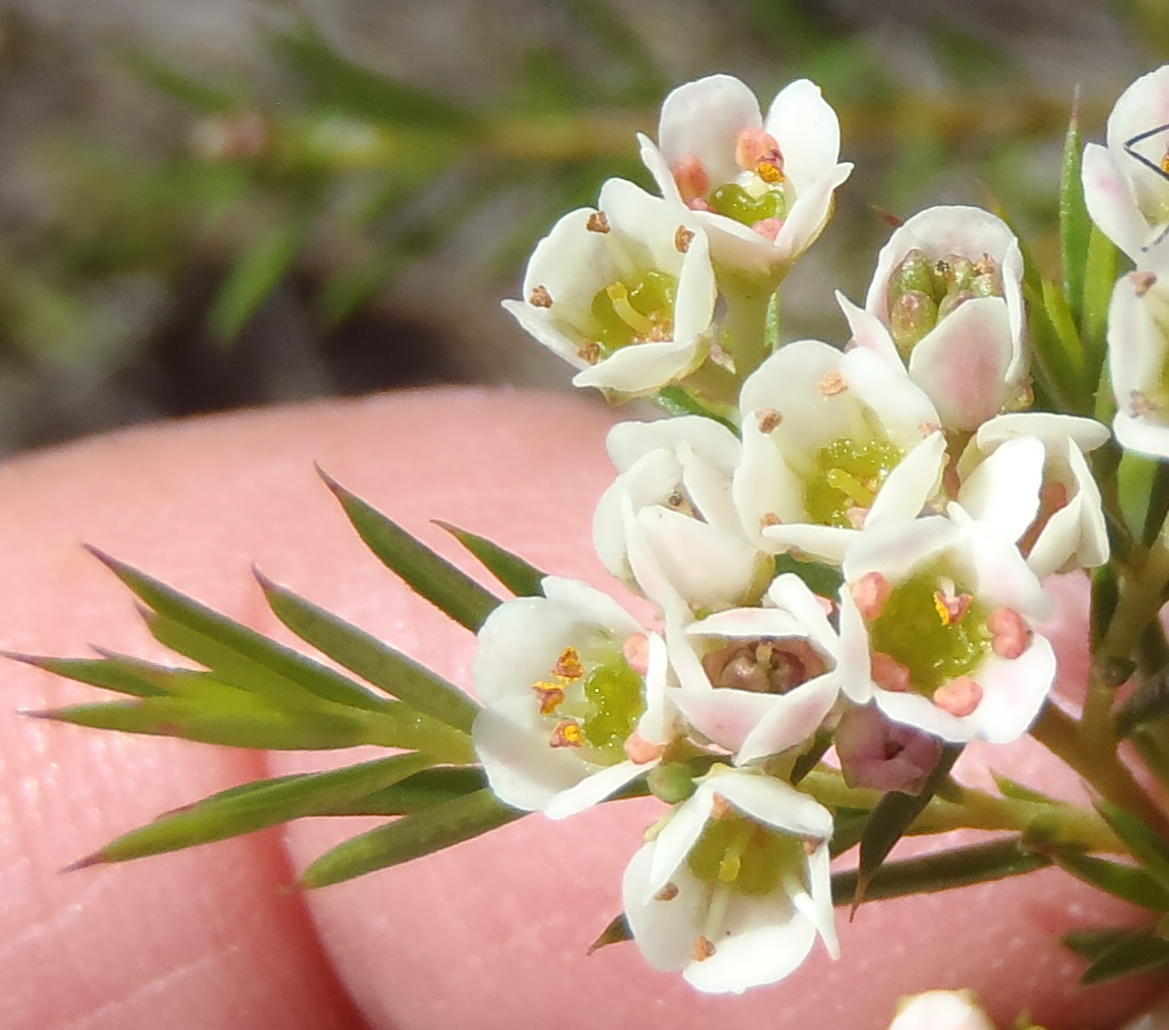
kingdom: Plantae
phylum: Tracheophyta
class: Magnoliopsida
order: Sapindales
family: Rutaceae
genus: Diosma
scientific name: Diosma hirsuta
